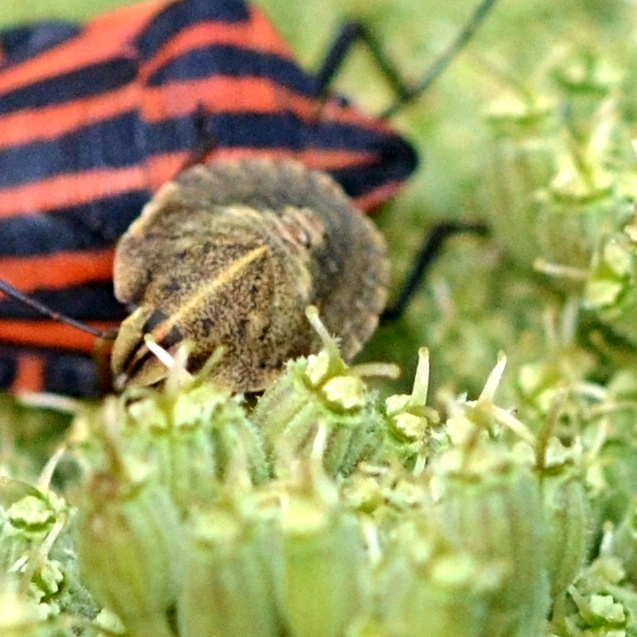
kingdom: Animalia
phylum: Arthropoda
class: Insecta
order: Hemiptera
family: Pentatomidae
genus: Graphosoma
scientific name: Graphosoma italicum
